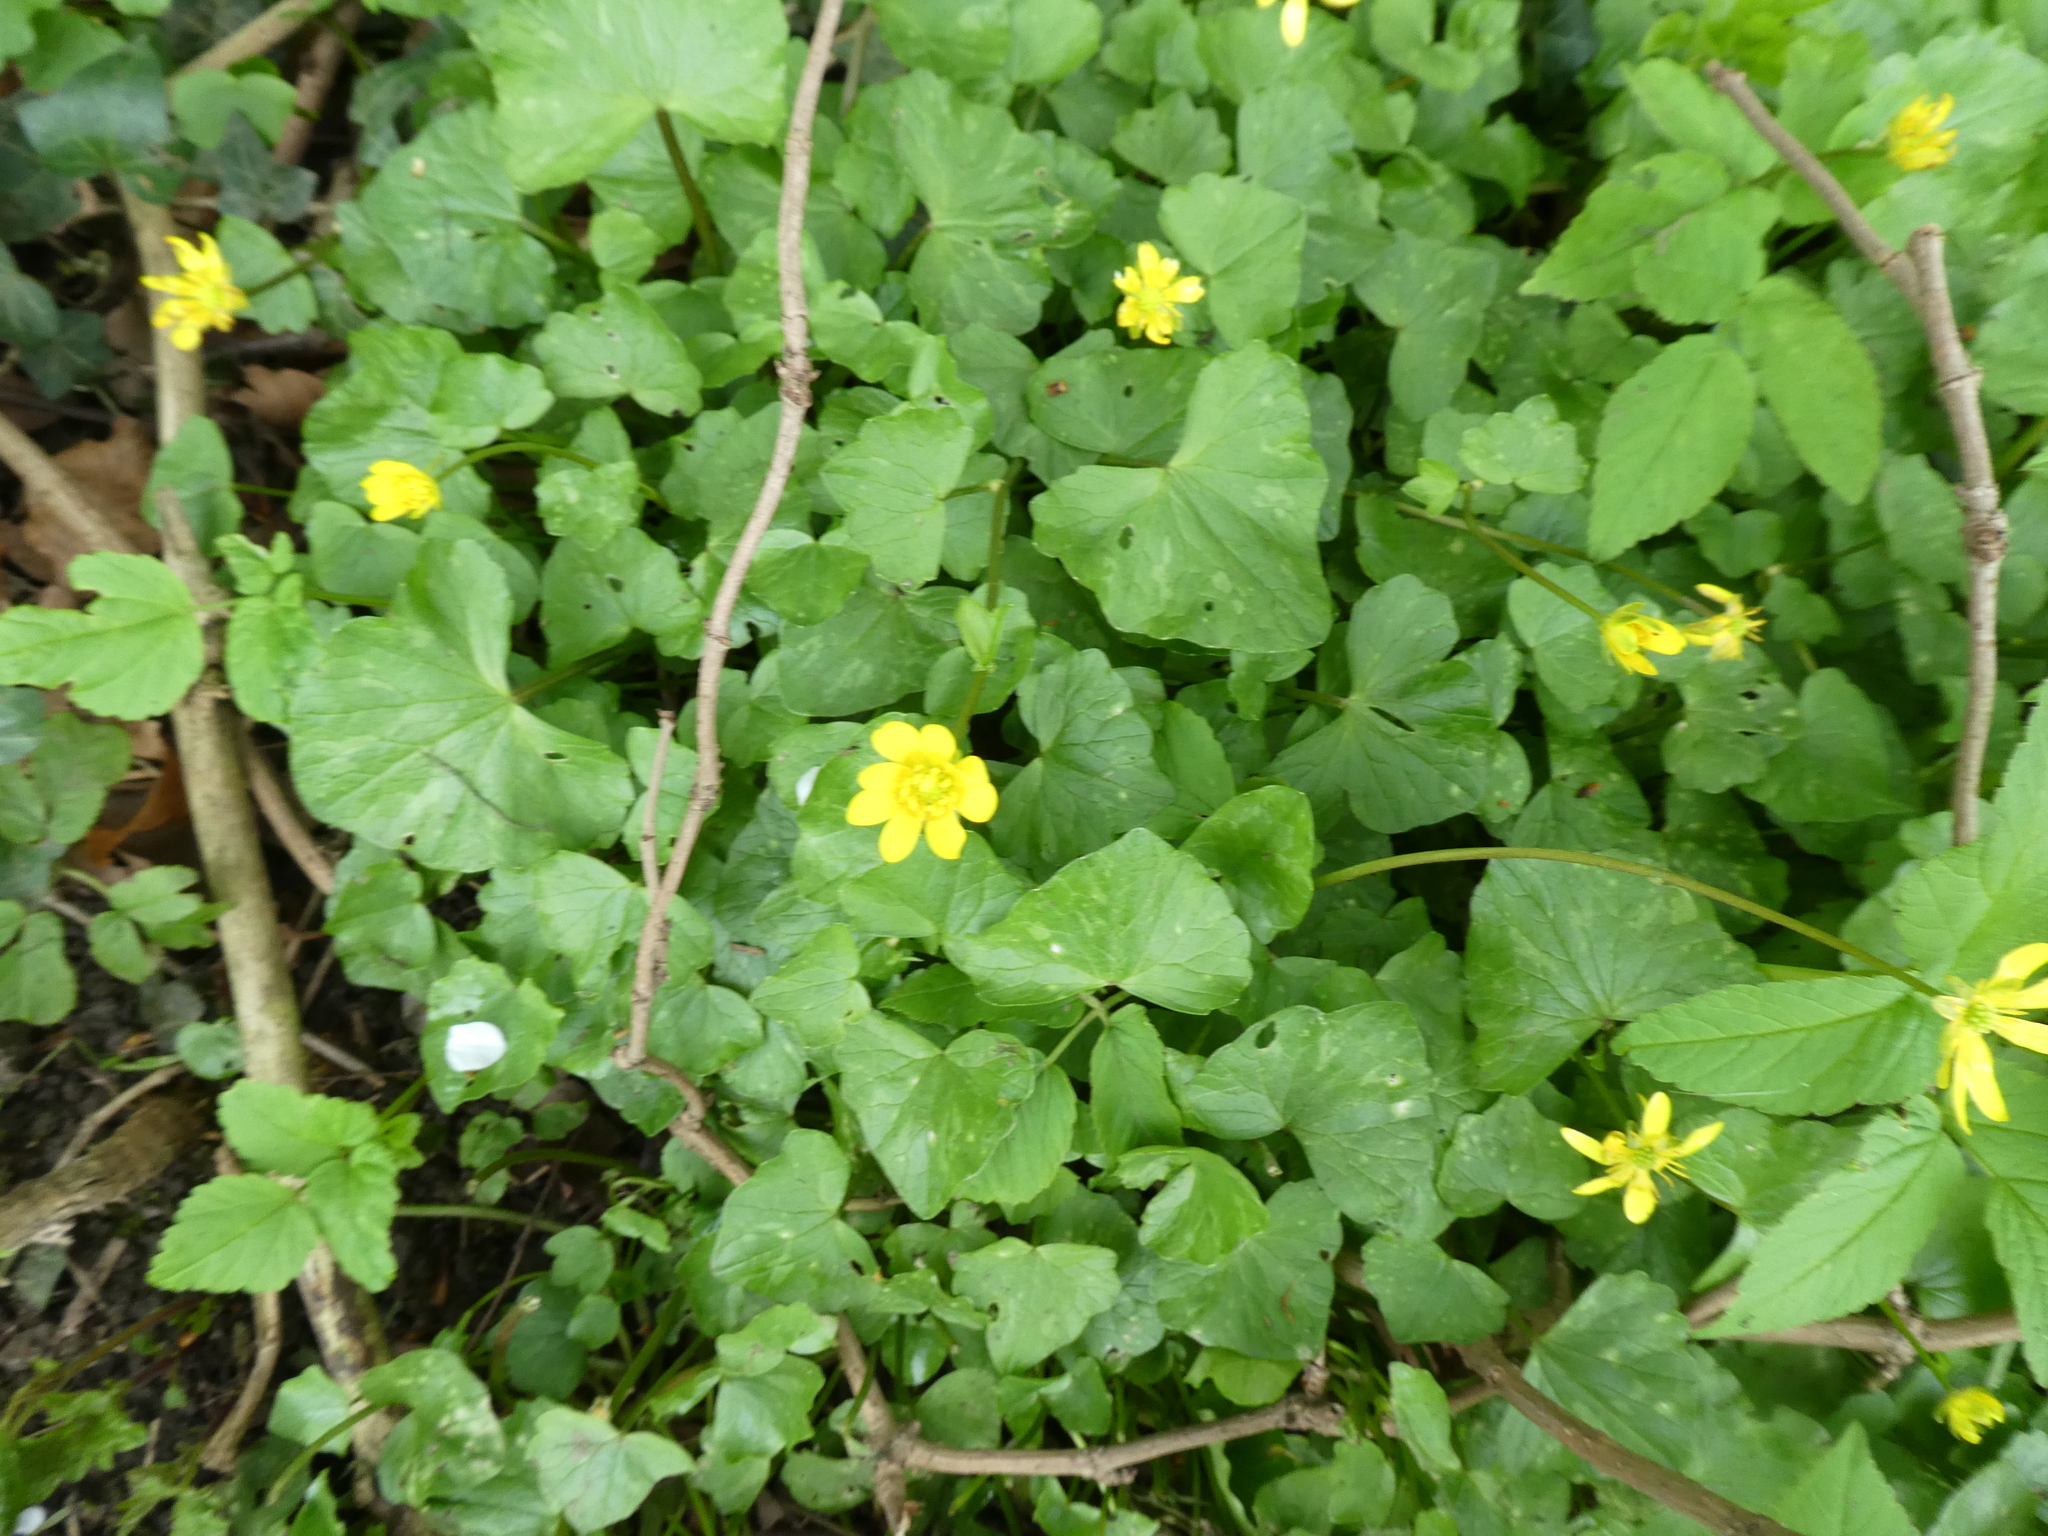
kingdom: Plantae
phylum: Tracheophyta
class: Magnoliopsida
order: Ranunculales
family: Ranunculaceae
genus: Ficaria
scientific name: Ficaria verna
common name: Lesser celandine
